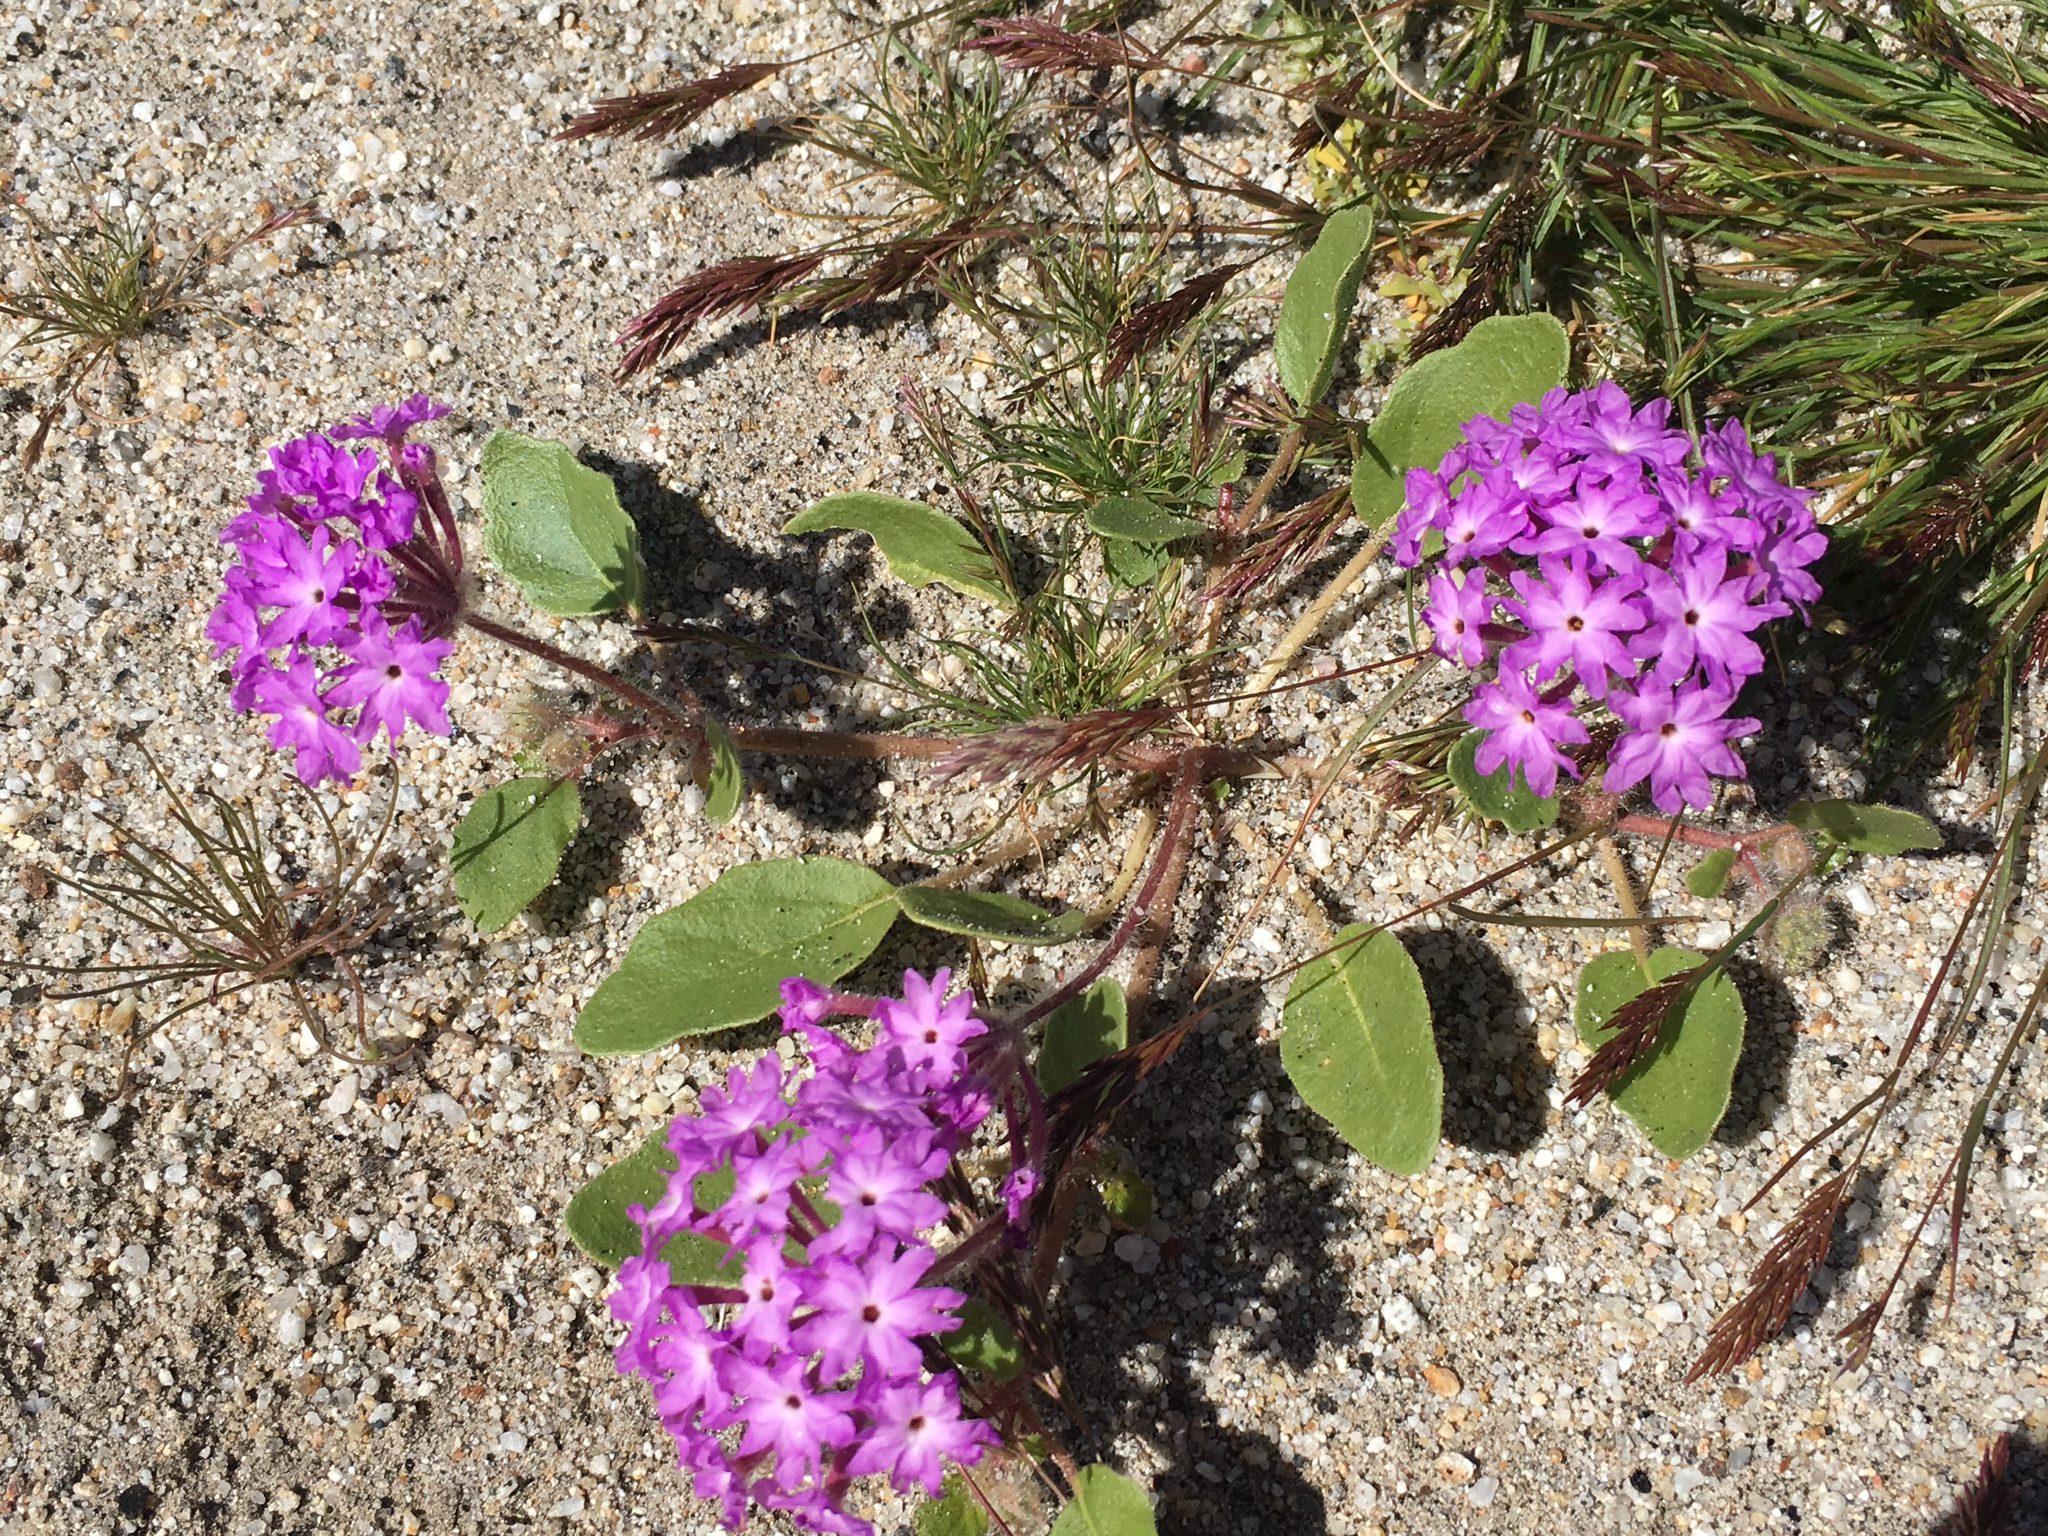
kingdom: Plantae
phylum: Tracheophyta
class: Magnoliopsida
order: Caryophyllales
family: Nyctaginaceae
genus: Abronia
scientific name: Abronia villosa
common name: Desert sand-verbena
